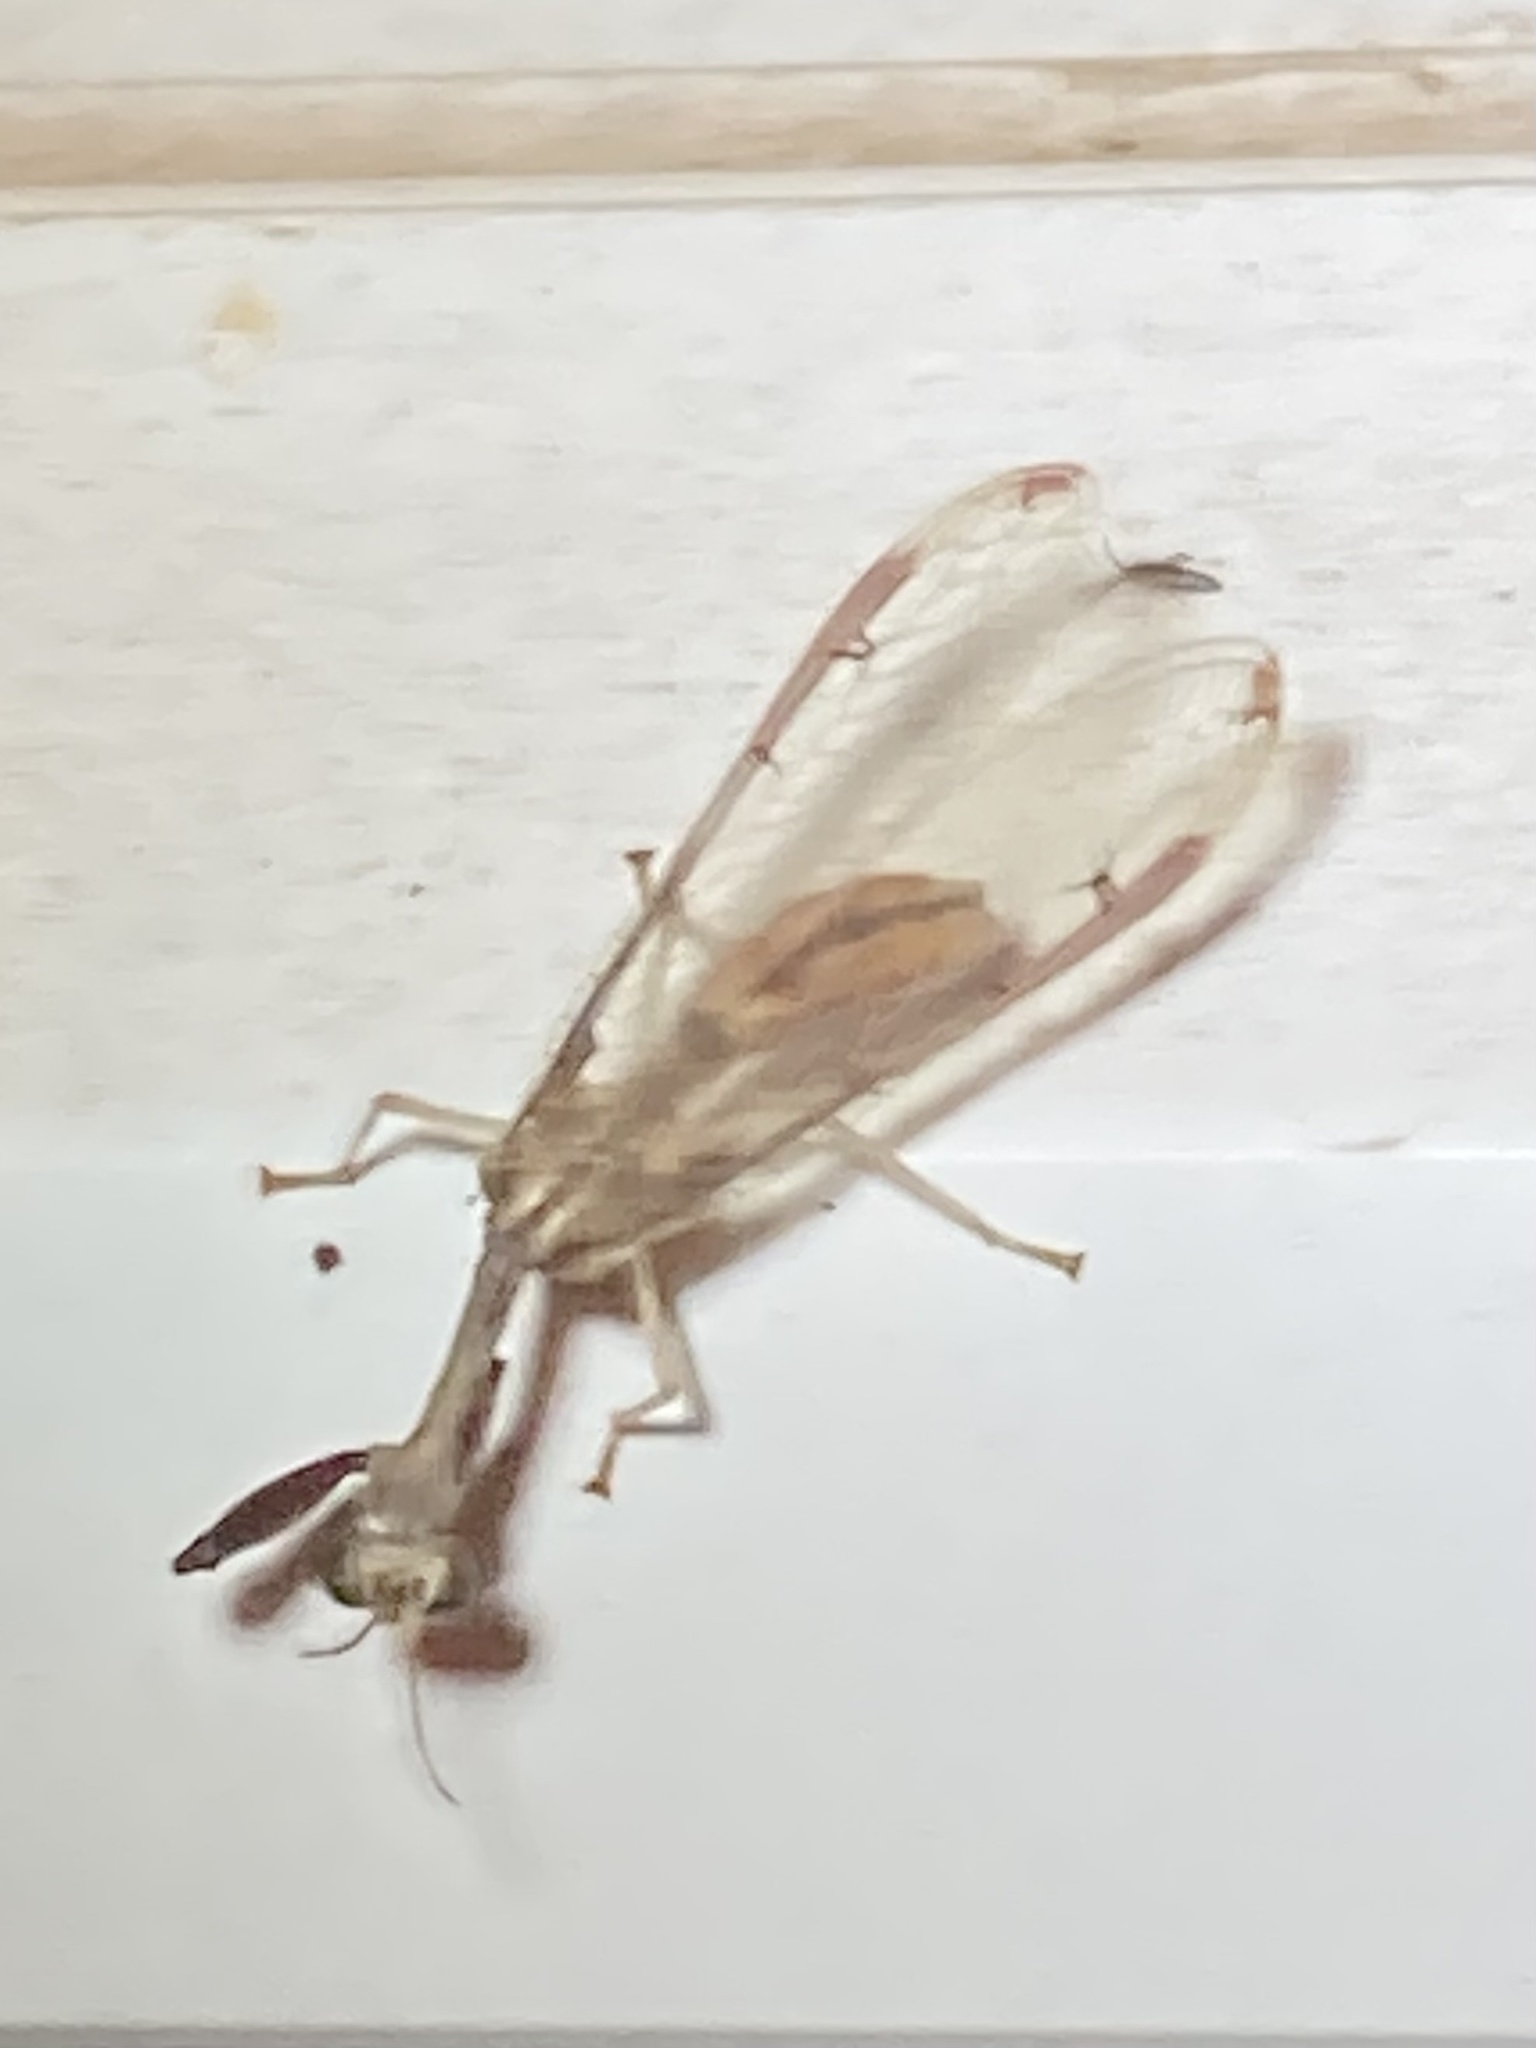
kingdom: Animalia
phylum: Arthropoda
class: Insecta
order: Neuroptera
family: Mantispidae
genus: Dicromantispa
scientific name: Dicromantispa interrupta
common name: Four-spotted mantidfly
